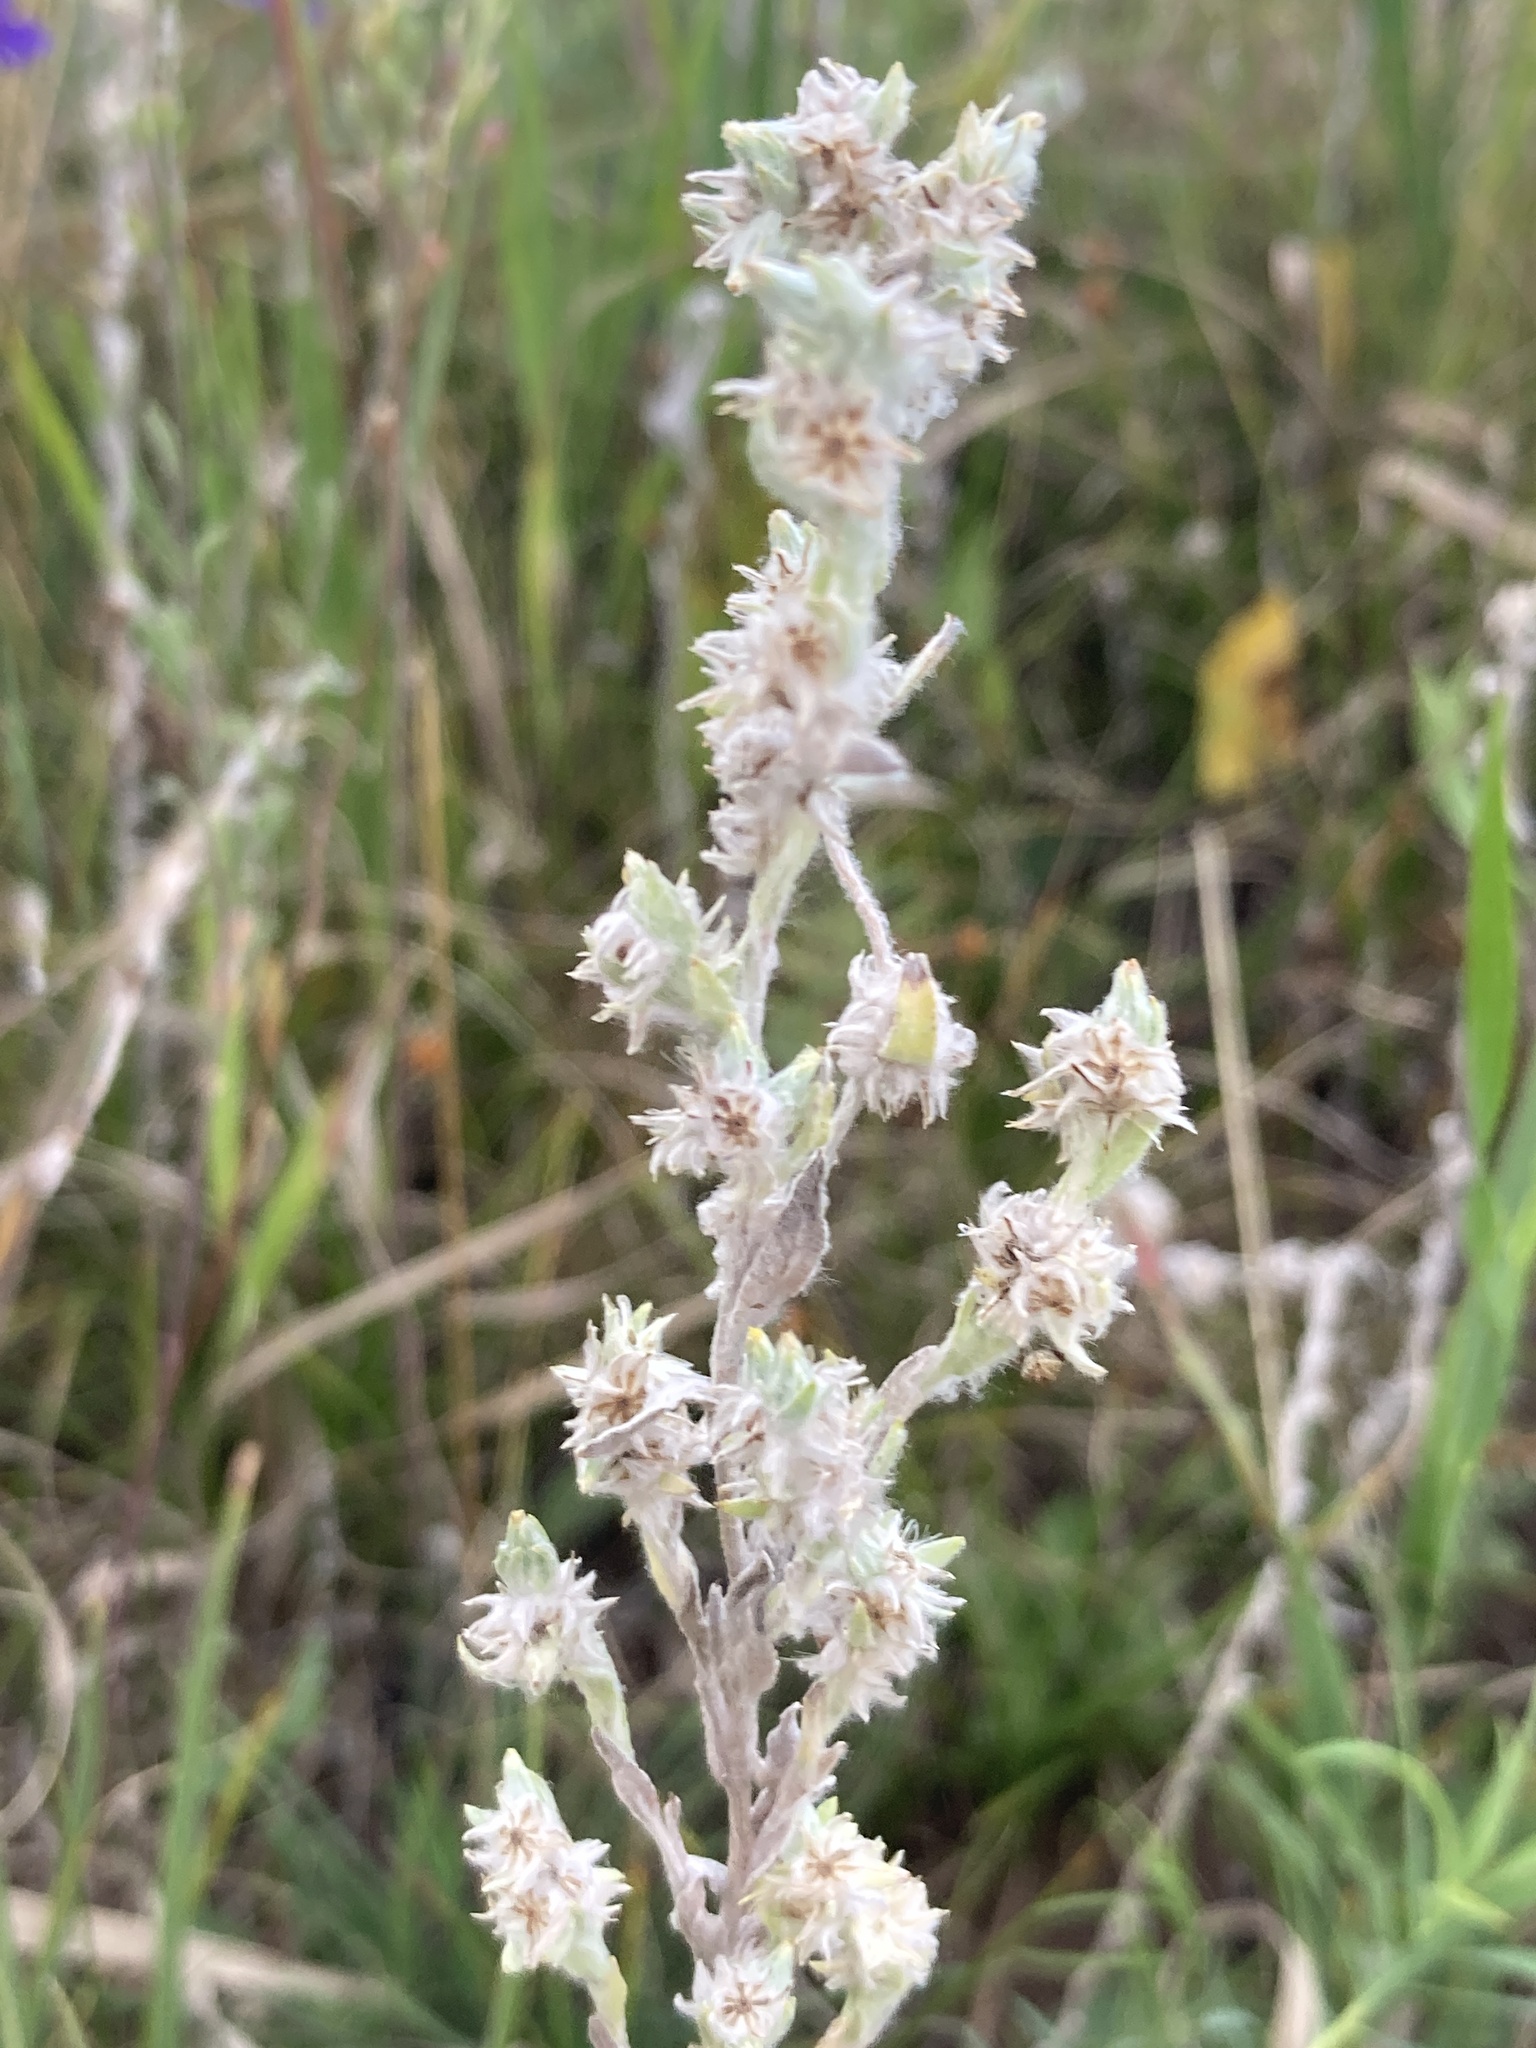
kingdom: Plantae
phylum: Tracheophyta
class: Magnoliopsida
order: Asterales
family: Asteraceae
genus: Filago
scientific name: Filago arvensis
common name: Field cudweed
